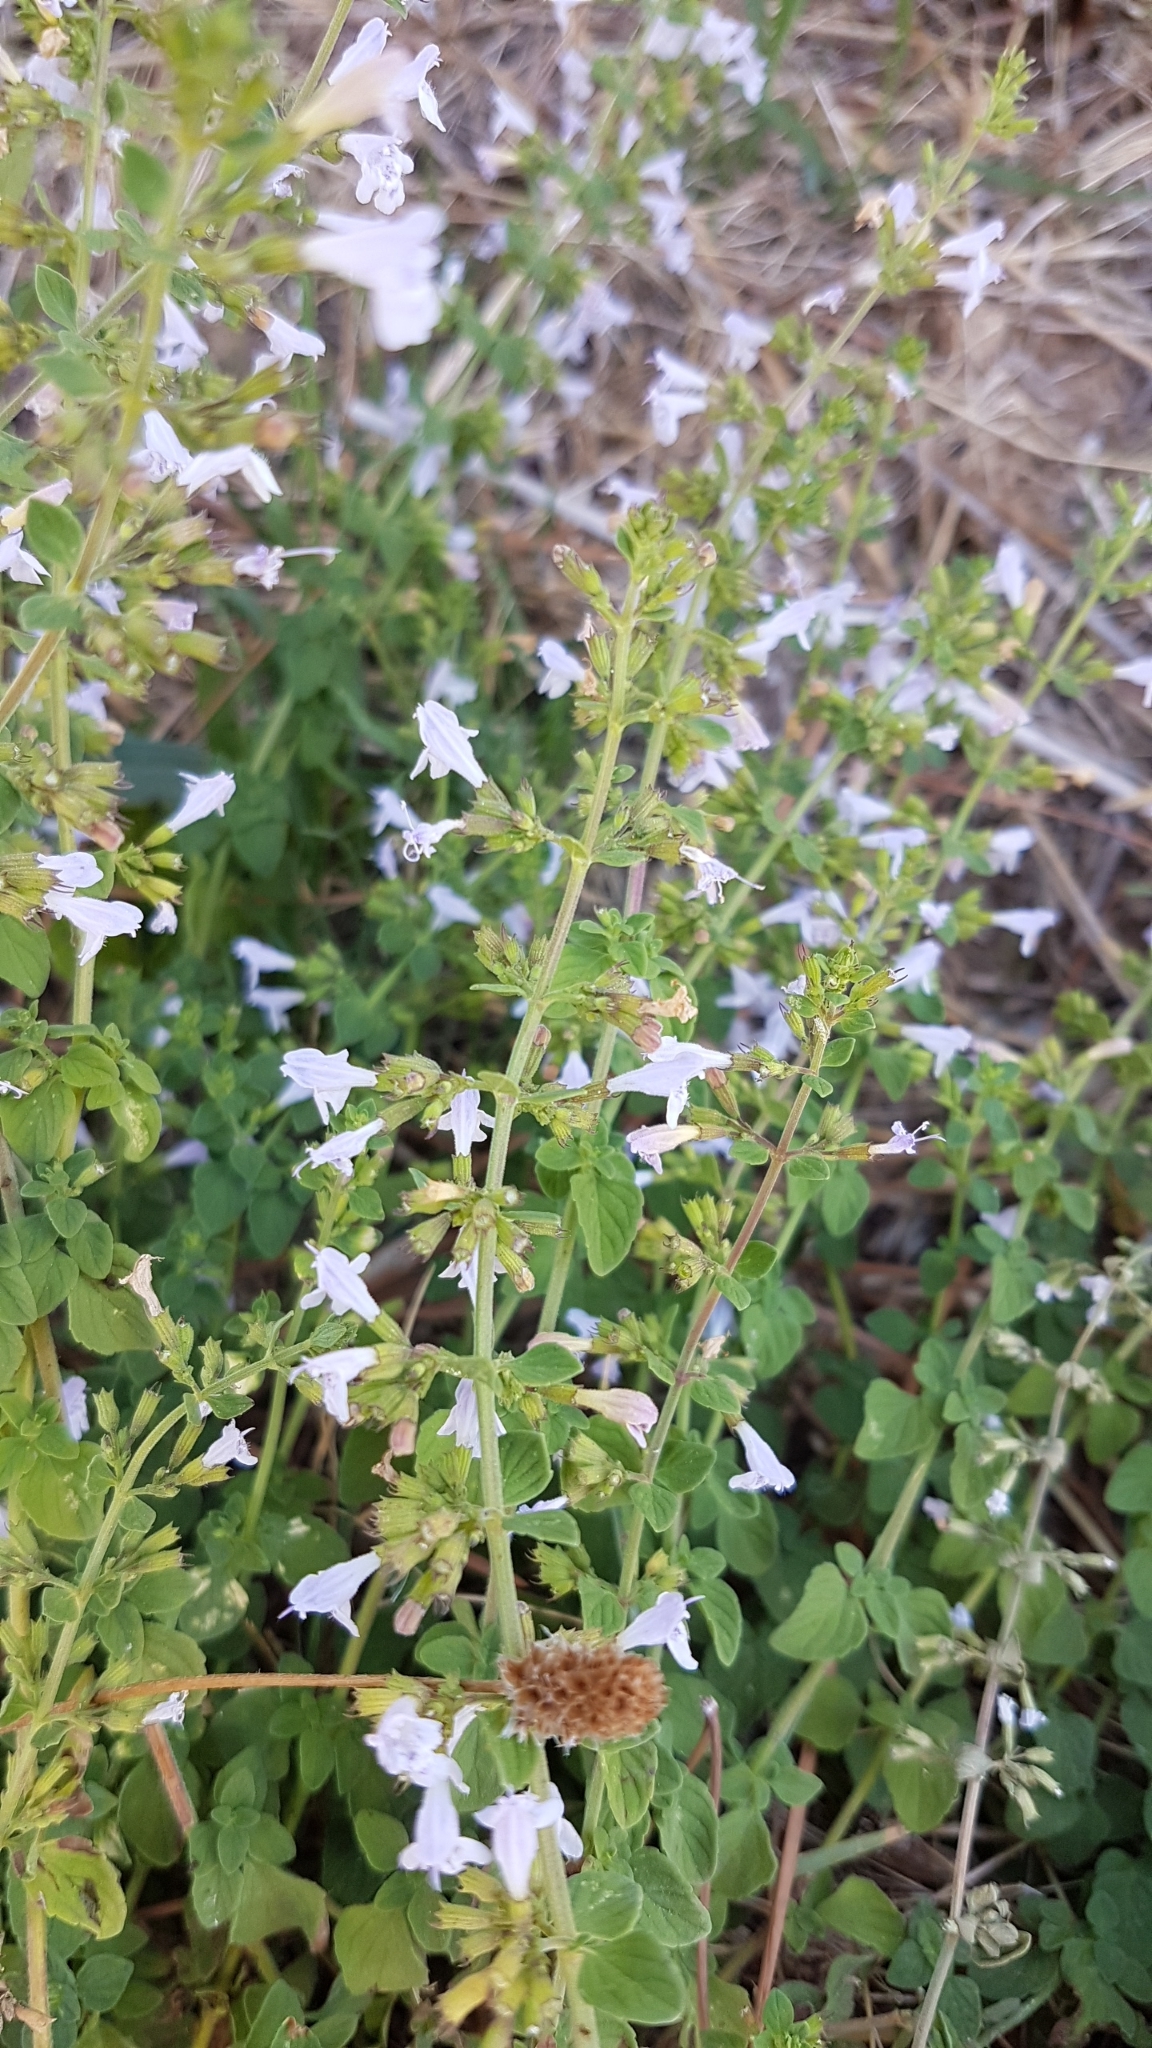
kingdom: Plantae
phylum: Tracheophyta
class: Magnoliopsida
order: Lamiales
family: Lamiaceae
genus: Clinopodium
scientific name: Clinopodium nepeta
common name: Lesser calamint
